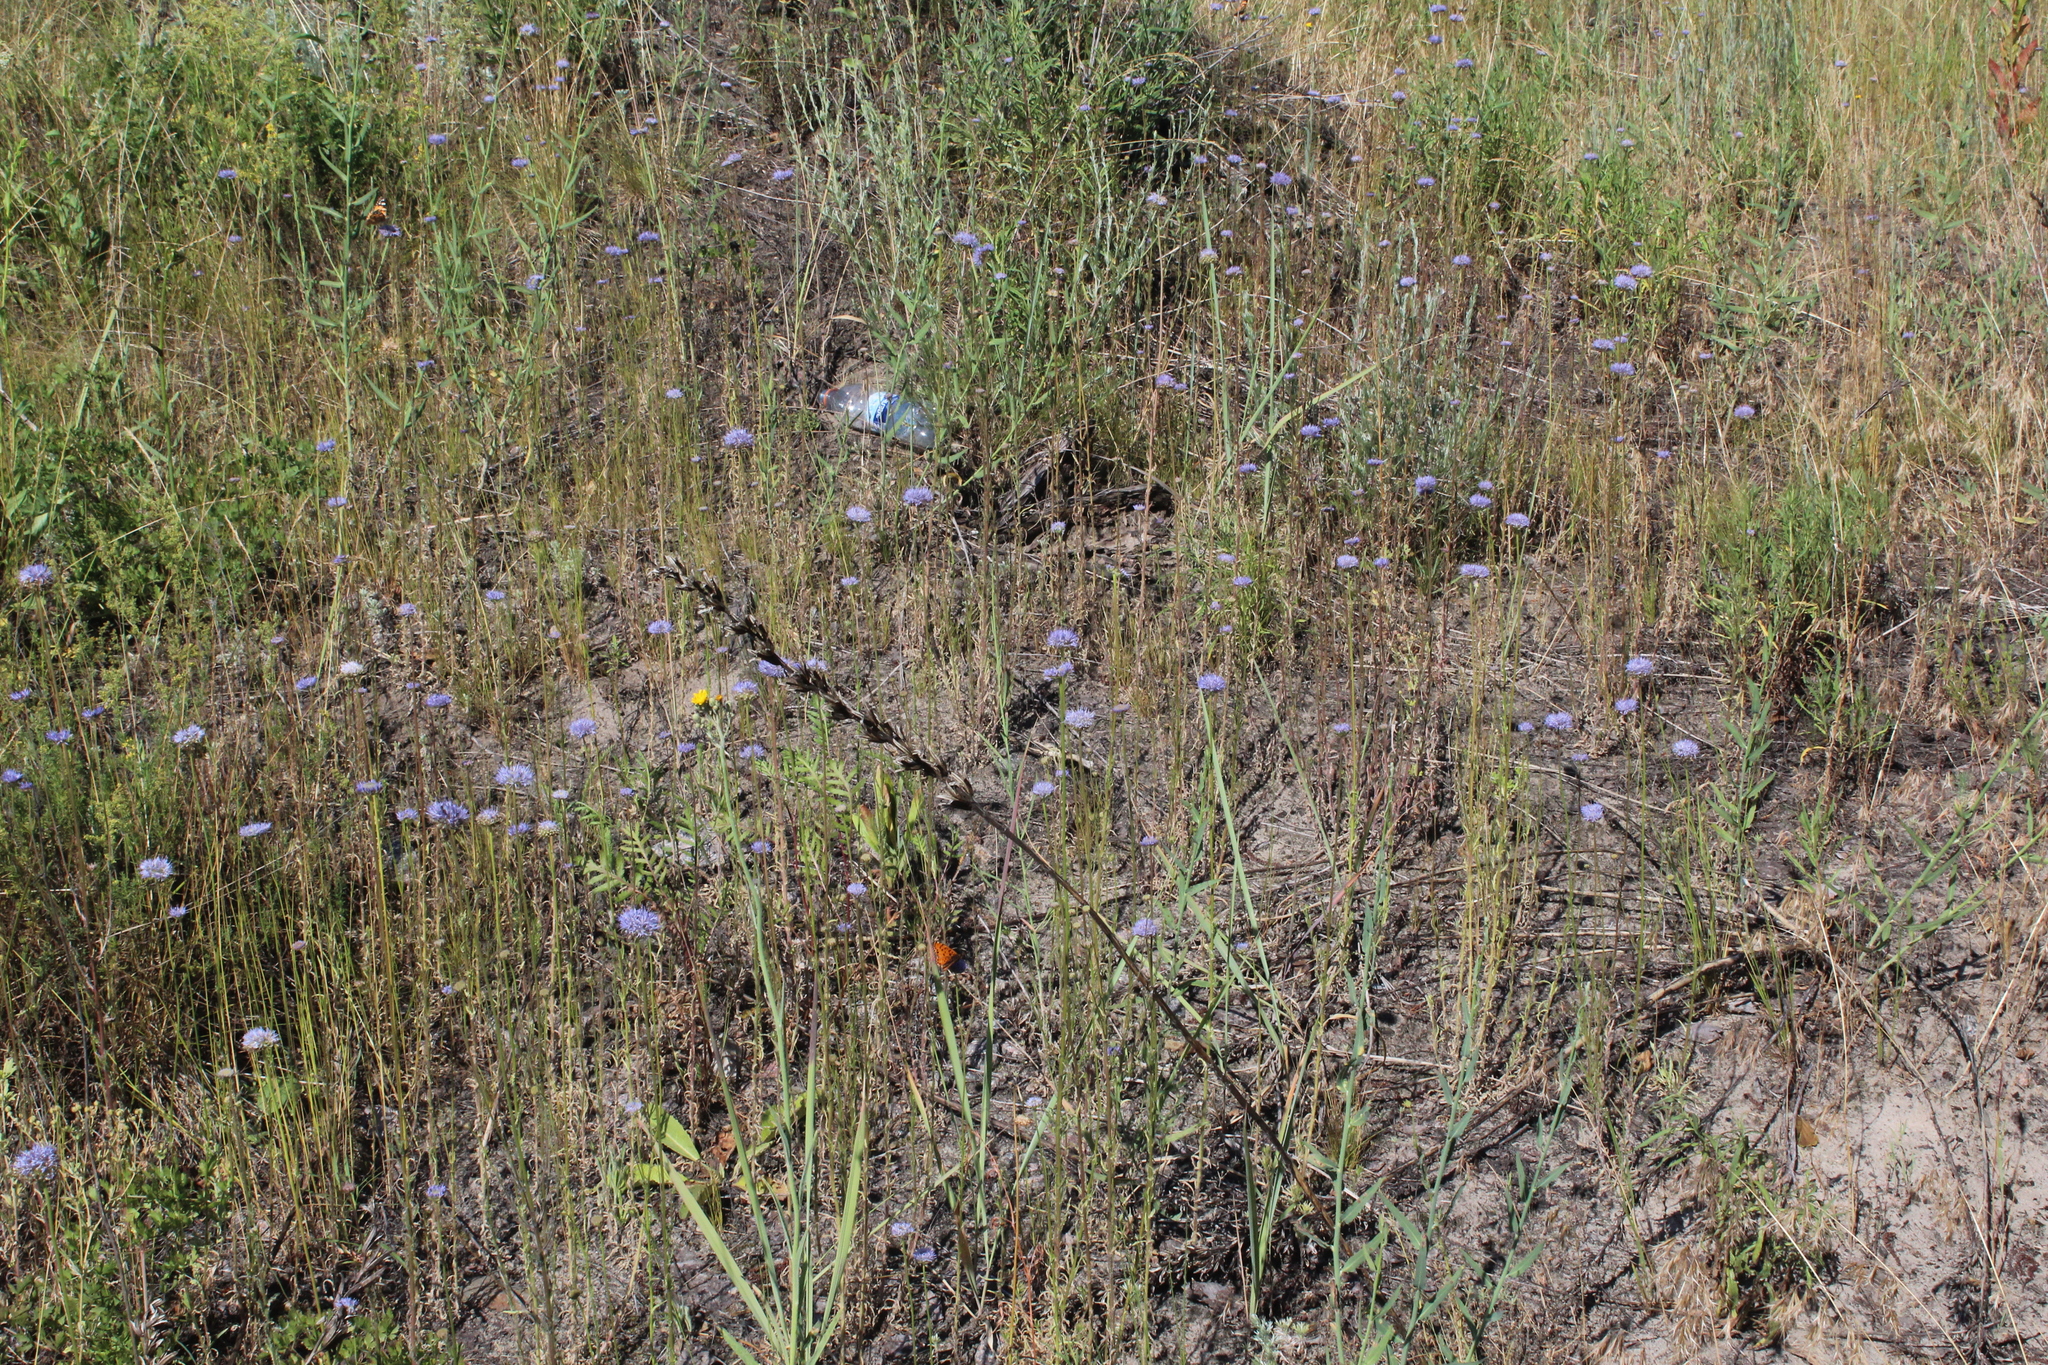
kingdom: Plantae
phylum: Tracheophyta
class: Magnoliopsida
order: Asterales
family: Campanulaceae
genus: Jasione
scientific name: Jasione montana
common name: Sheep's-bit
